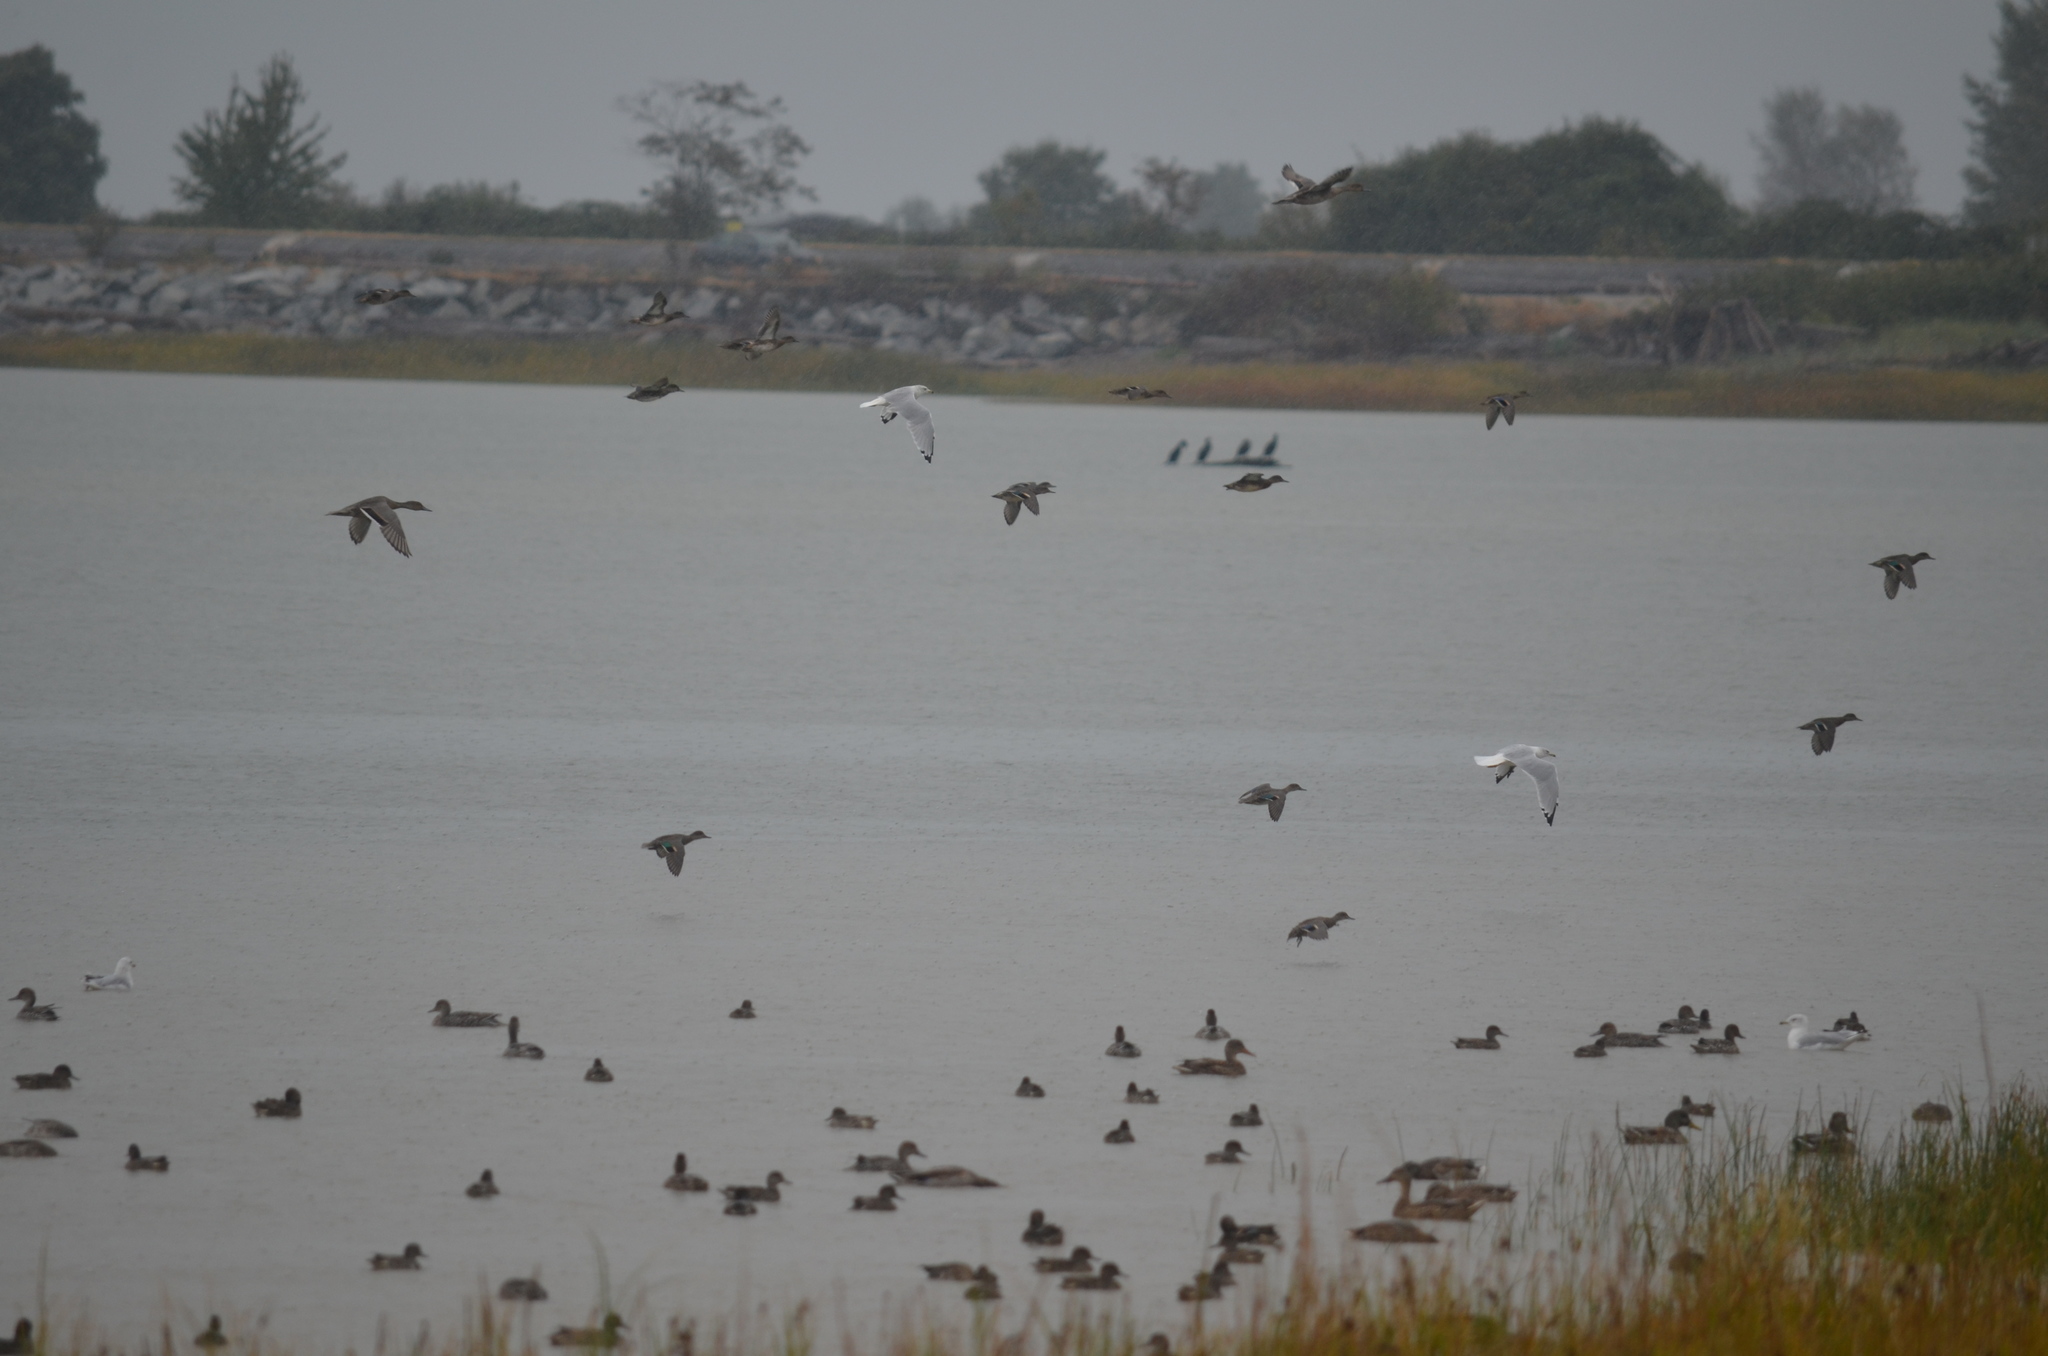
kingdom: Animalia
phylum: Chordata
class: Aves
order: Anseriformes
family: Anatidae
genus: Anas
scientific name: Anas crecca
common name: Eurasian teal
